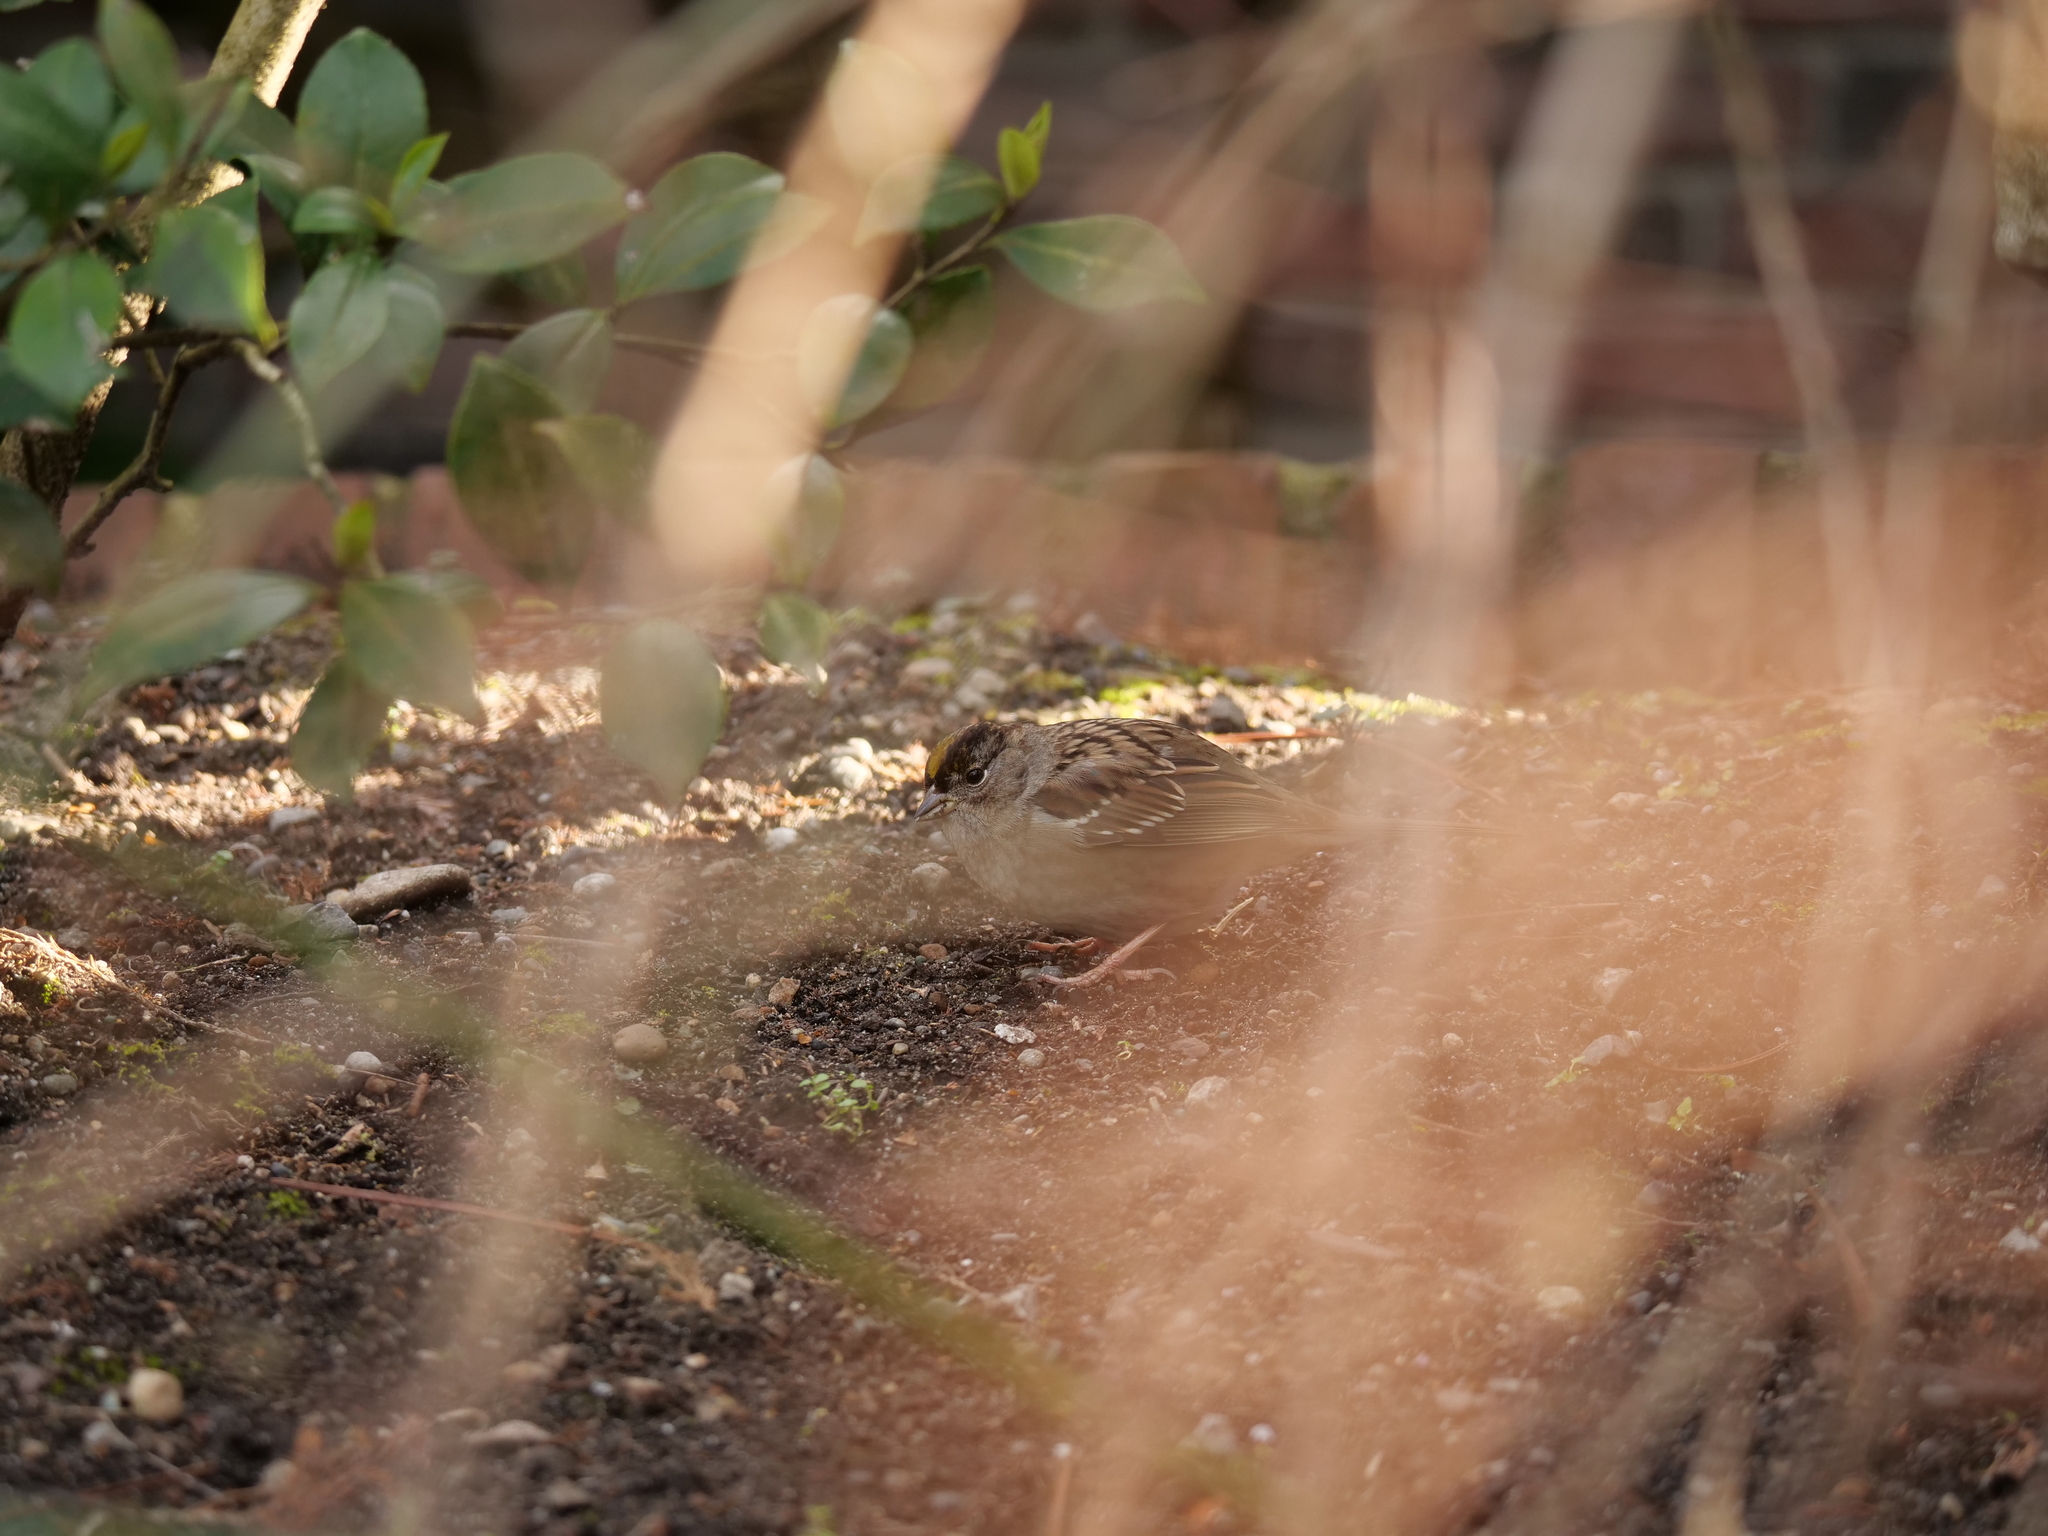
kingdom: Animalia
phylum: Chordata
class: Aves
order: Passeriformes
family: Passerellidae
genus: Zonotrichia
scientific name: Zonotrichia atricapilla
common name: Golden-crowned sparrow
